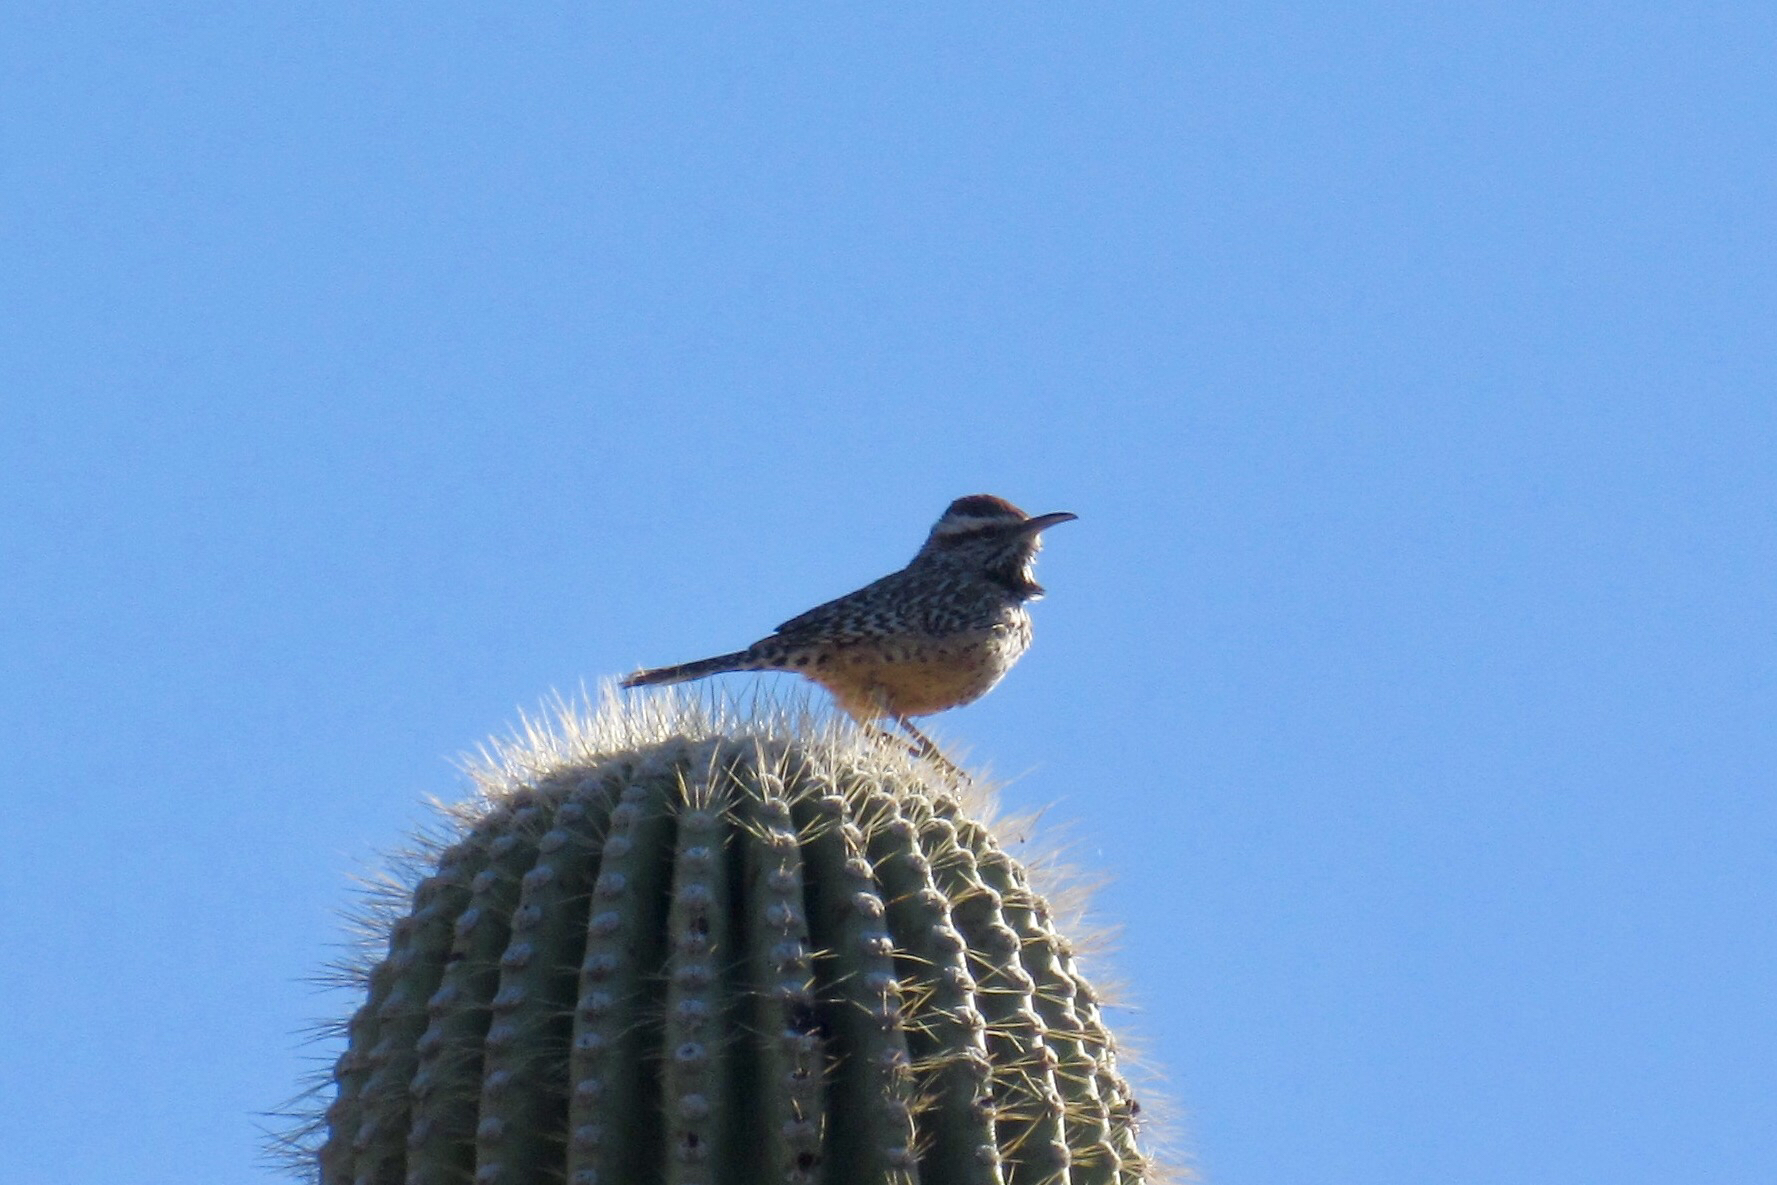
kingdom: Animalia
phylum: Chordata
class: Aves
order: Passeriformes
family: Troglodytidae
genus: Campylorhynchus
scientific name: Campylorhynchus brunneicapillus
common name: Cactus wren
